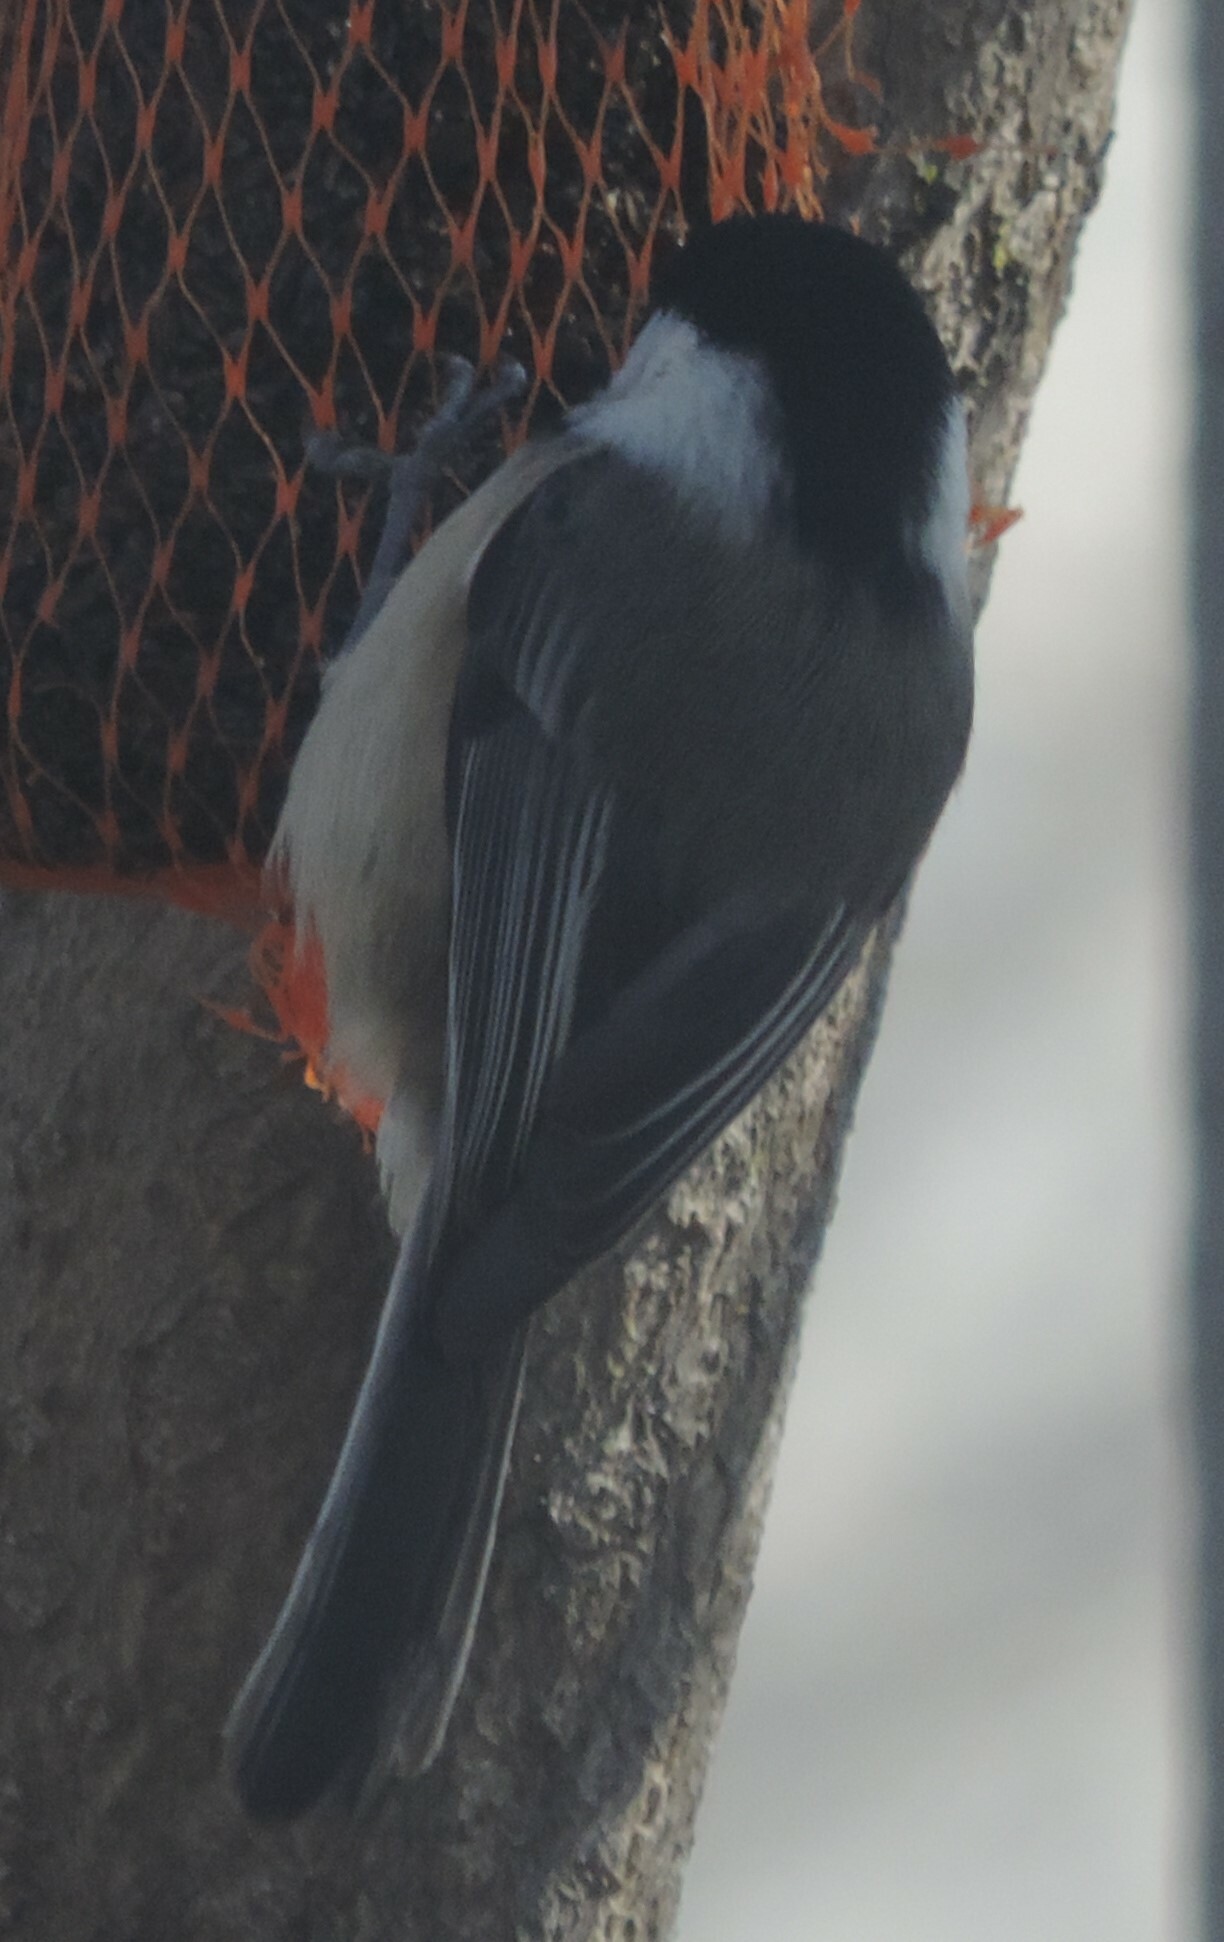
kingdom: Animalia
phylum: Chordata
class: Aves
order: Passeriformes
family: Paridae
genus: Poecile
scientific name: Poecile atricapillus
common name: Black-capped chickadee
